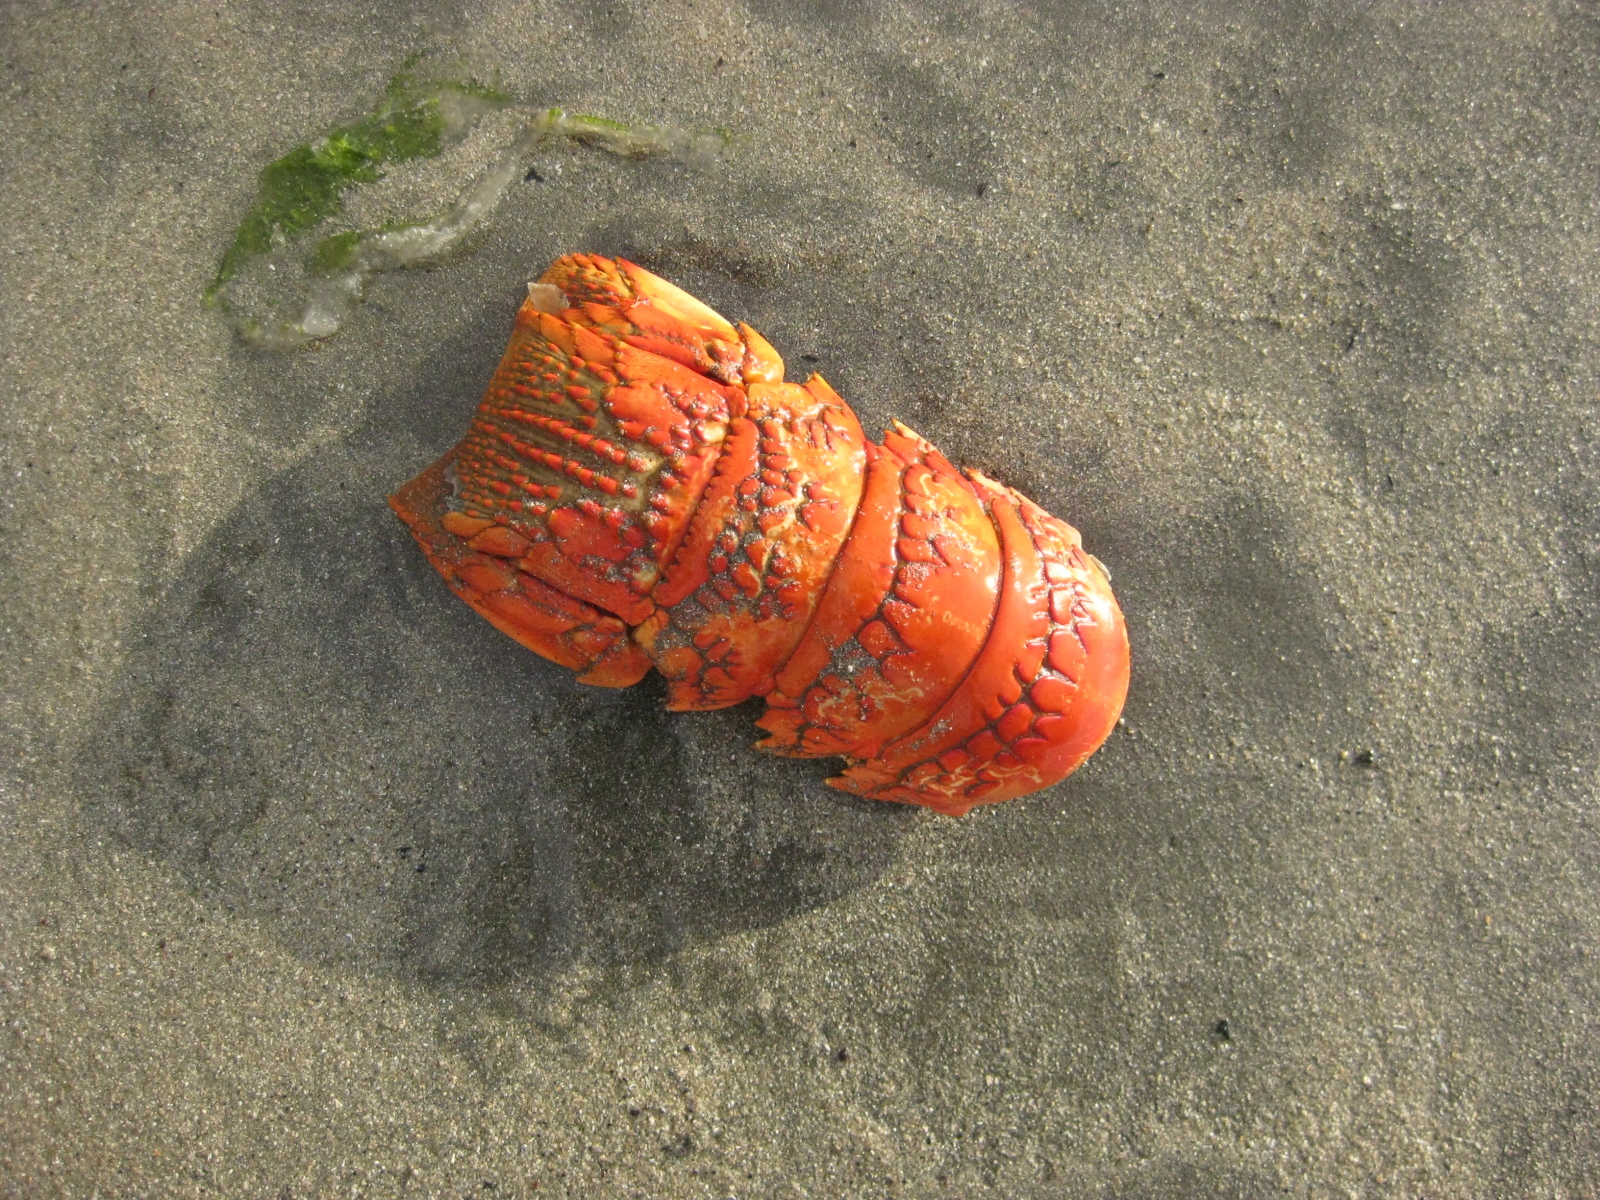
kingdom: Animalia
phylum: Arthropoda
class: Malacostraca
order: Decapoda
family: Palinuridae
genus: Jasus
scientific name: Jasus edwardsii
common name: Red rock lobster
